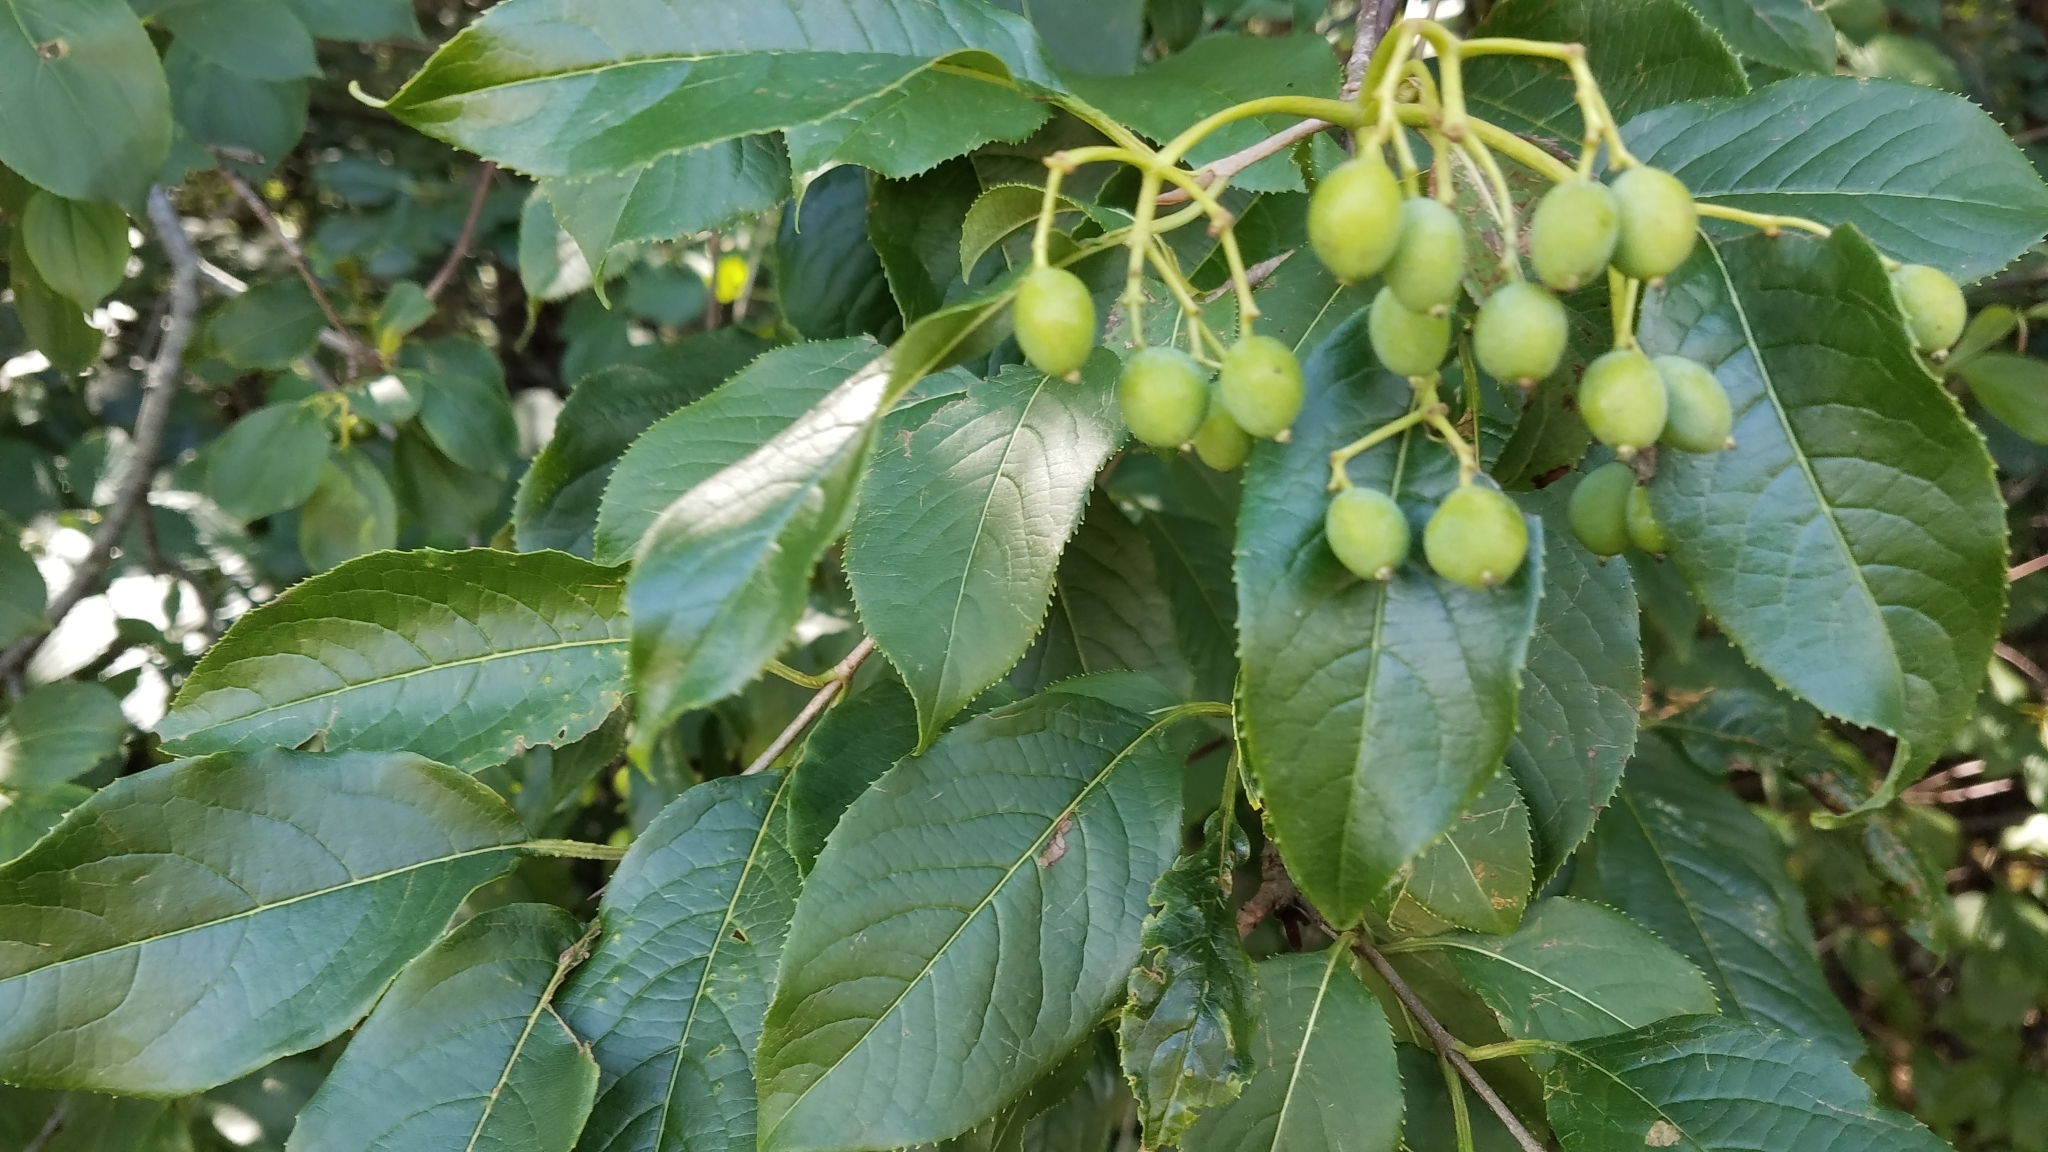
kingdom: Plantae
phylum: Tracheophyta
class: Magnoliopsida
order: Dipsacales
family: Viburnaceae
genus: Viburnum
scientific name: Viburnum lentago
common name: Black haw
